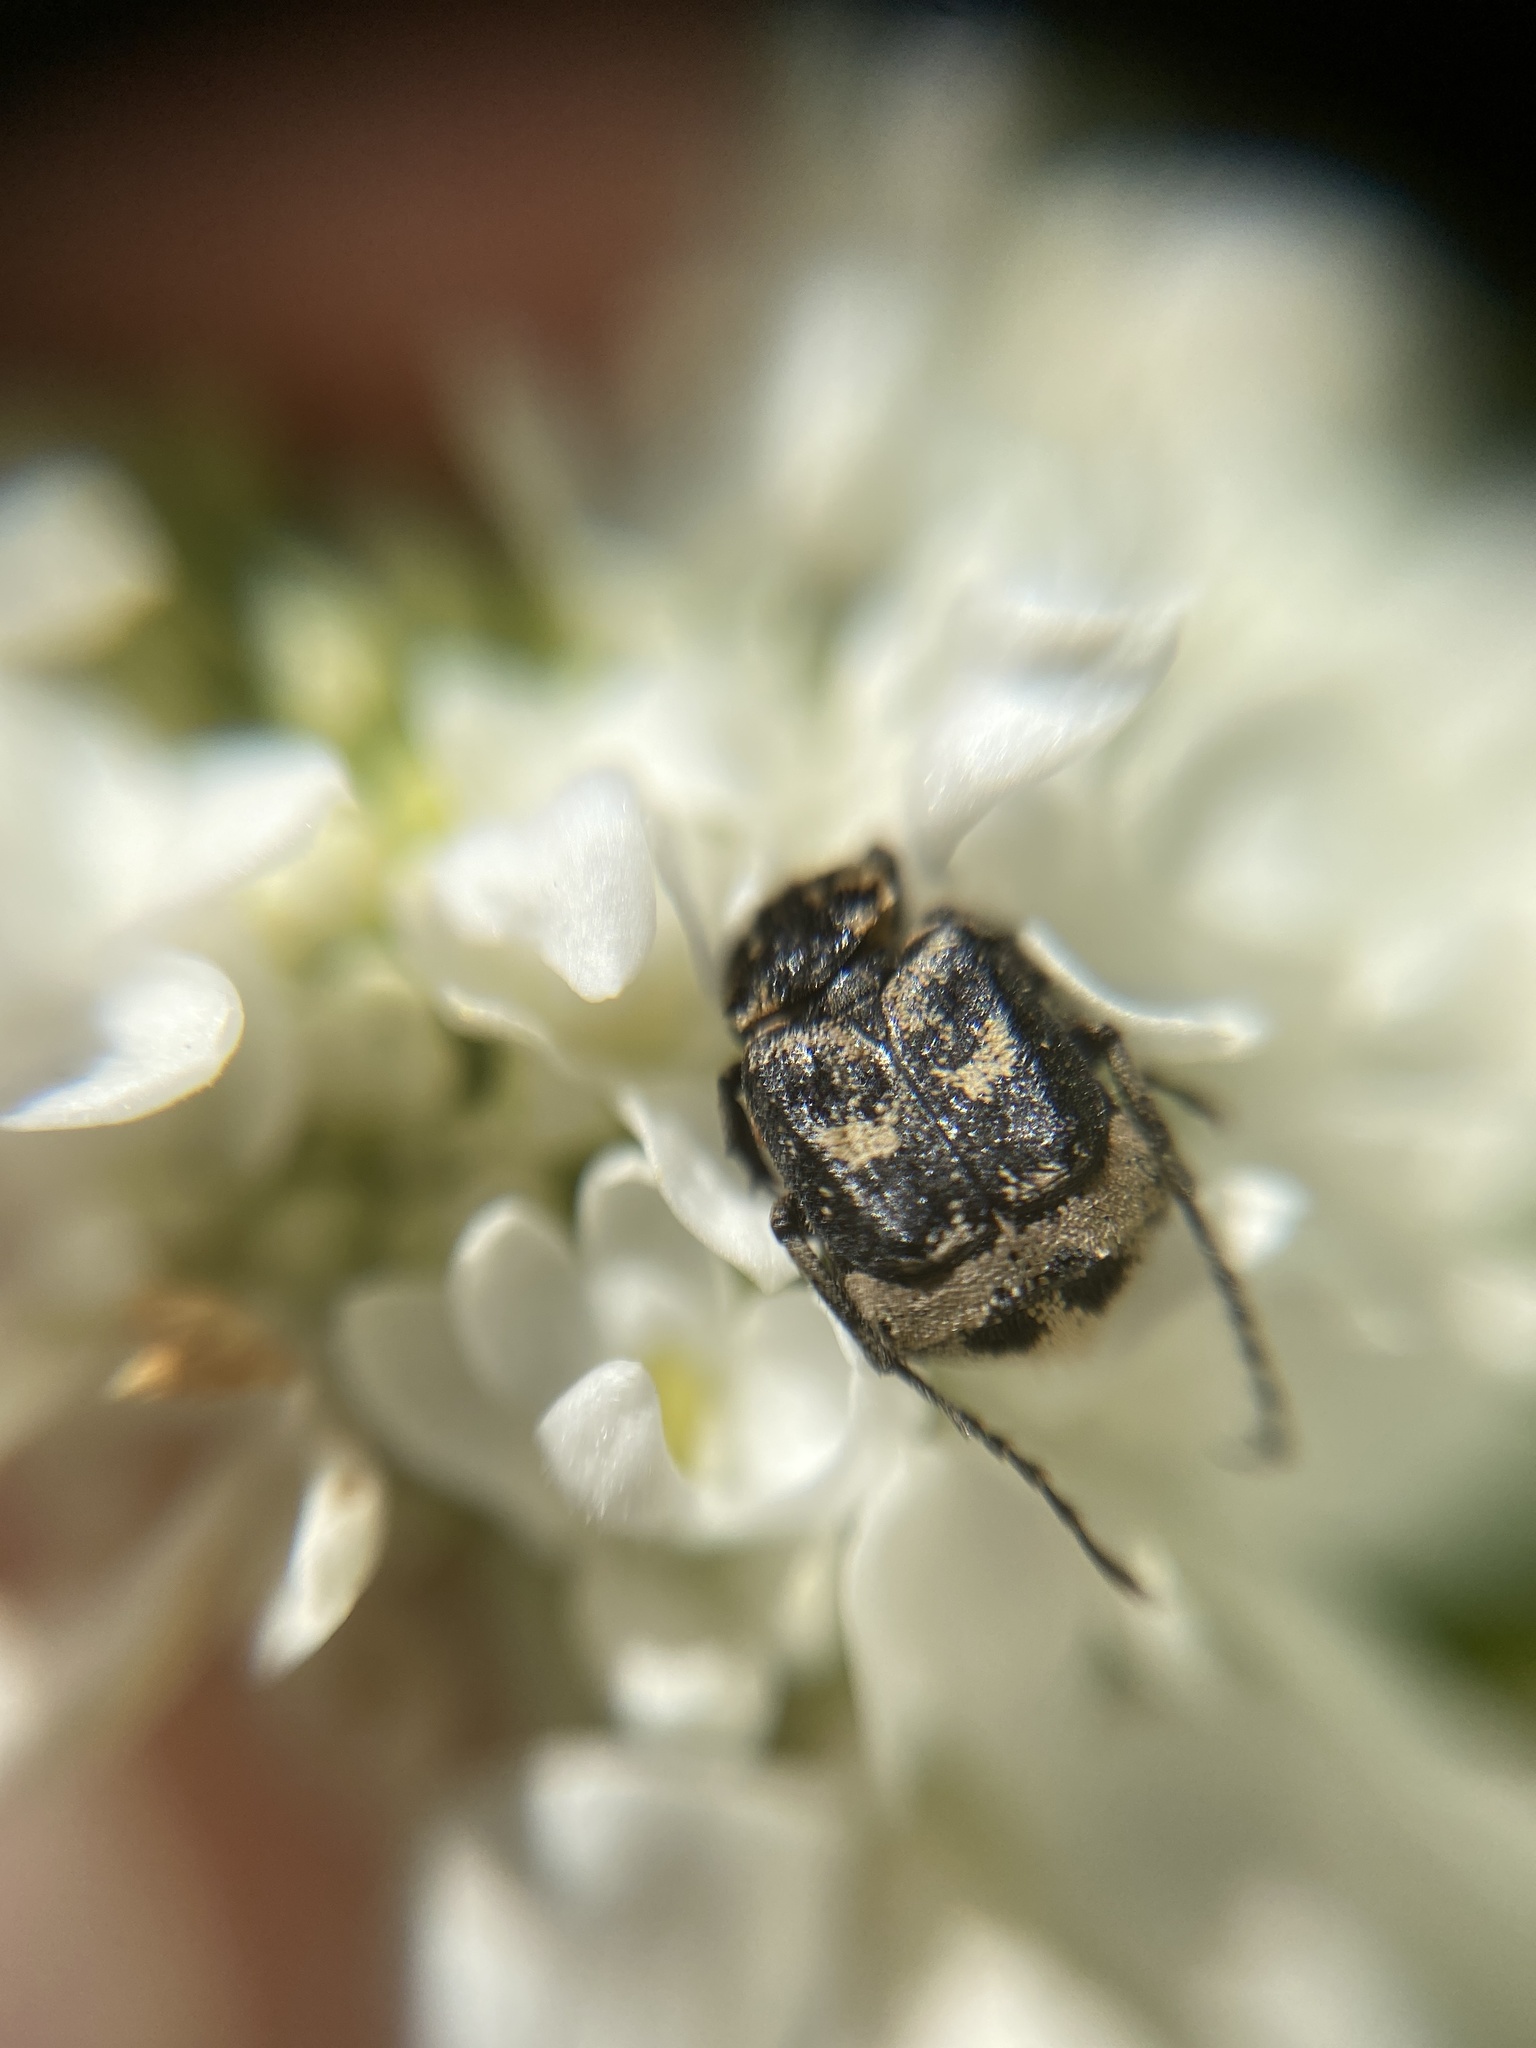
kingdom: Animalia
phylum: Arthropoda
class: Insecta
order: Coleoptera
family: Scarabaeidae
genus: Valgus
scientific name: Valgus hemipterus
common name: Bug flower chafer
